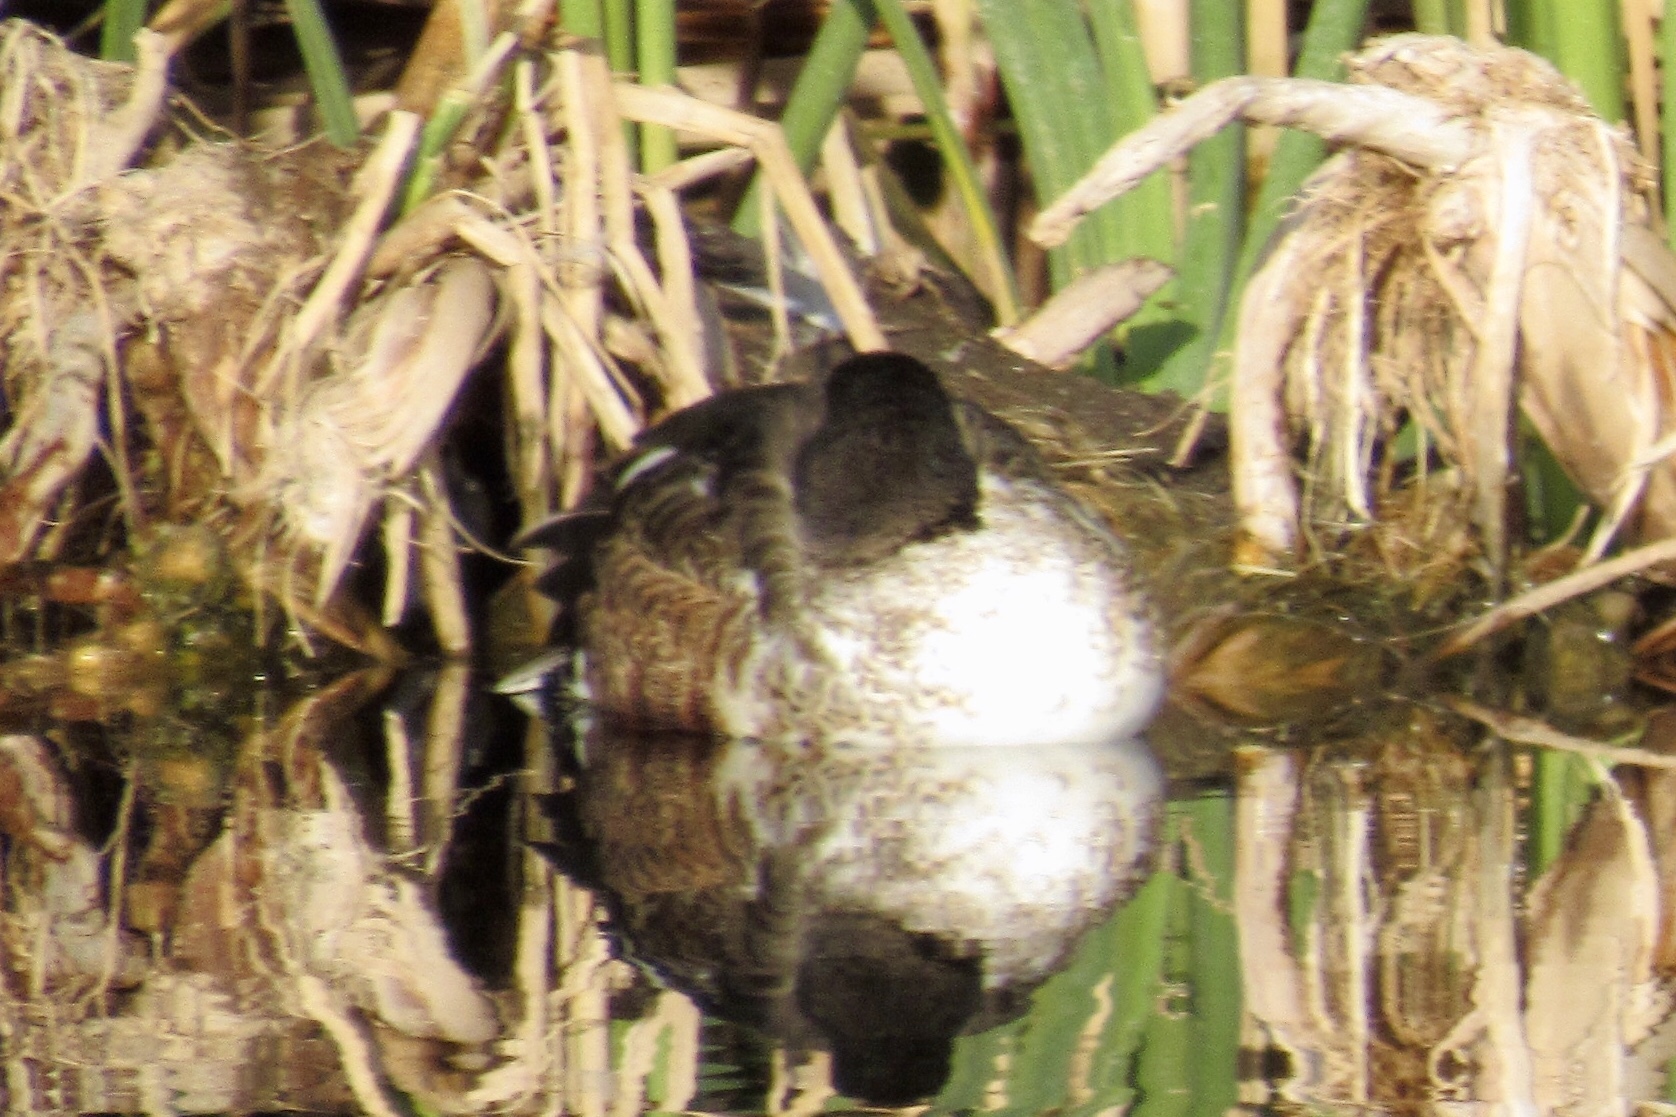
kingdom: Animalia
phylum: Chordata
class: Aves
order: Anseriformes
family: Anatidae
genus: Spatula
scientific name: Spatula clypeata
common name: Northern shoveler
